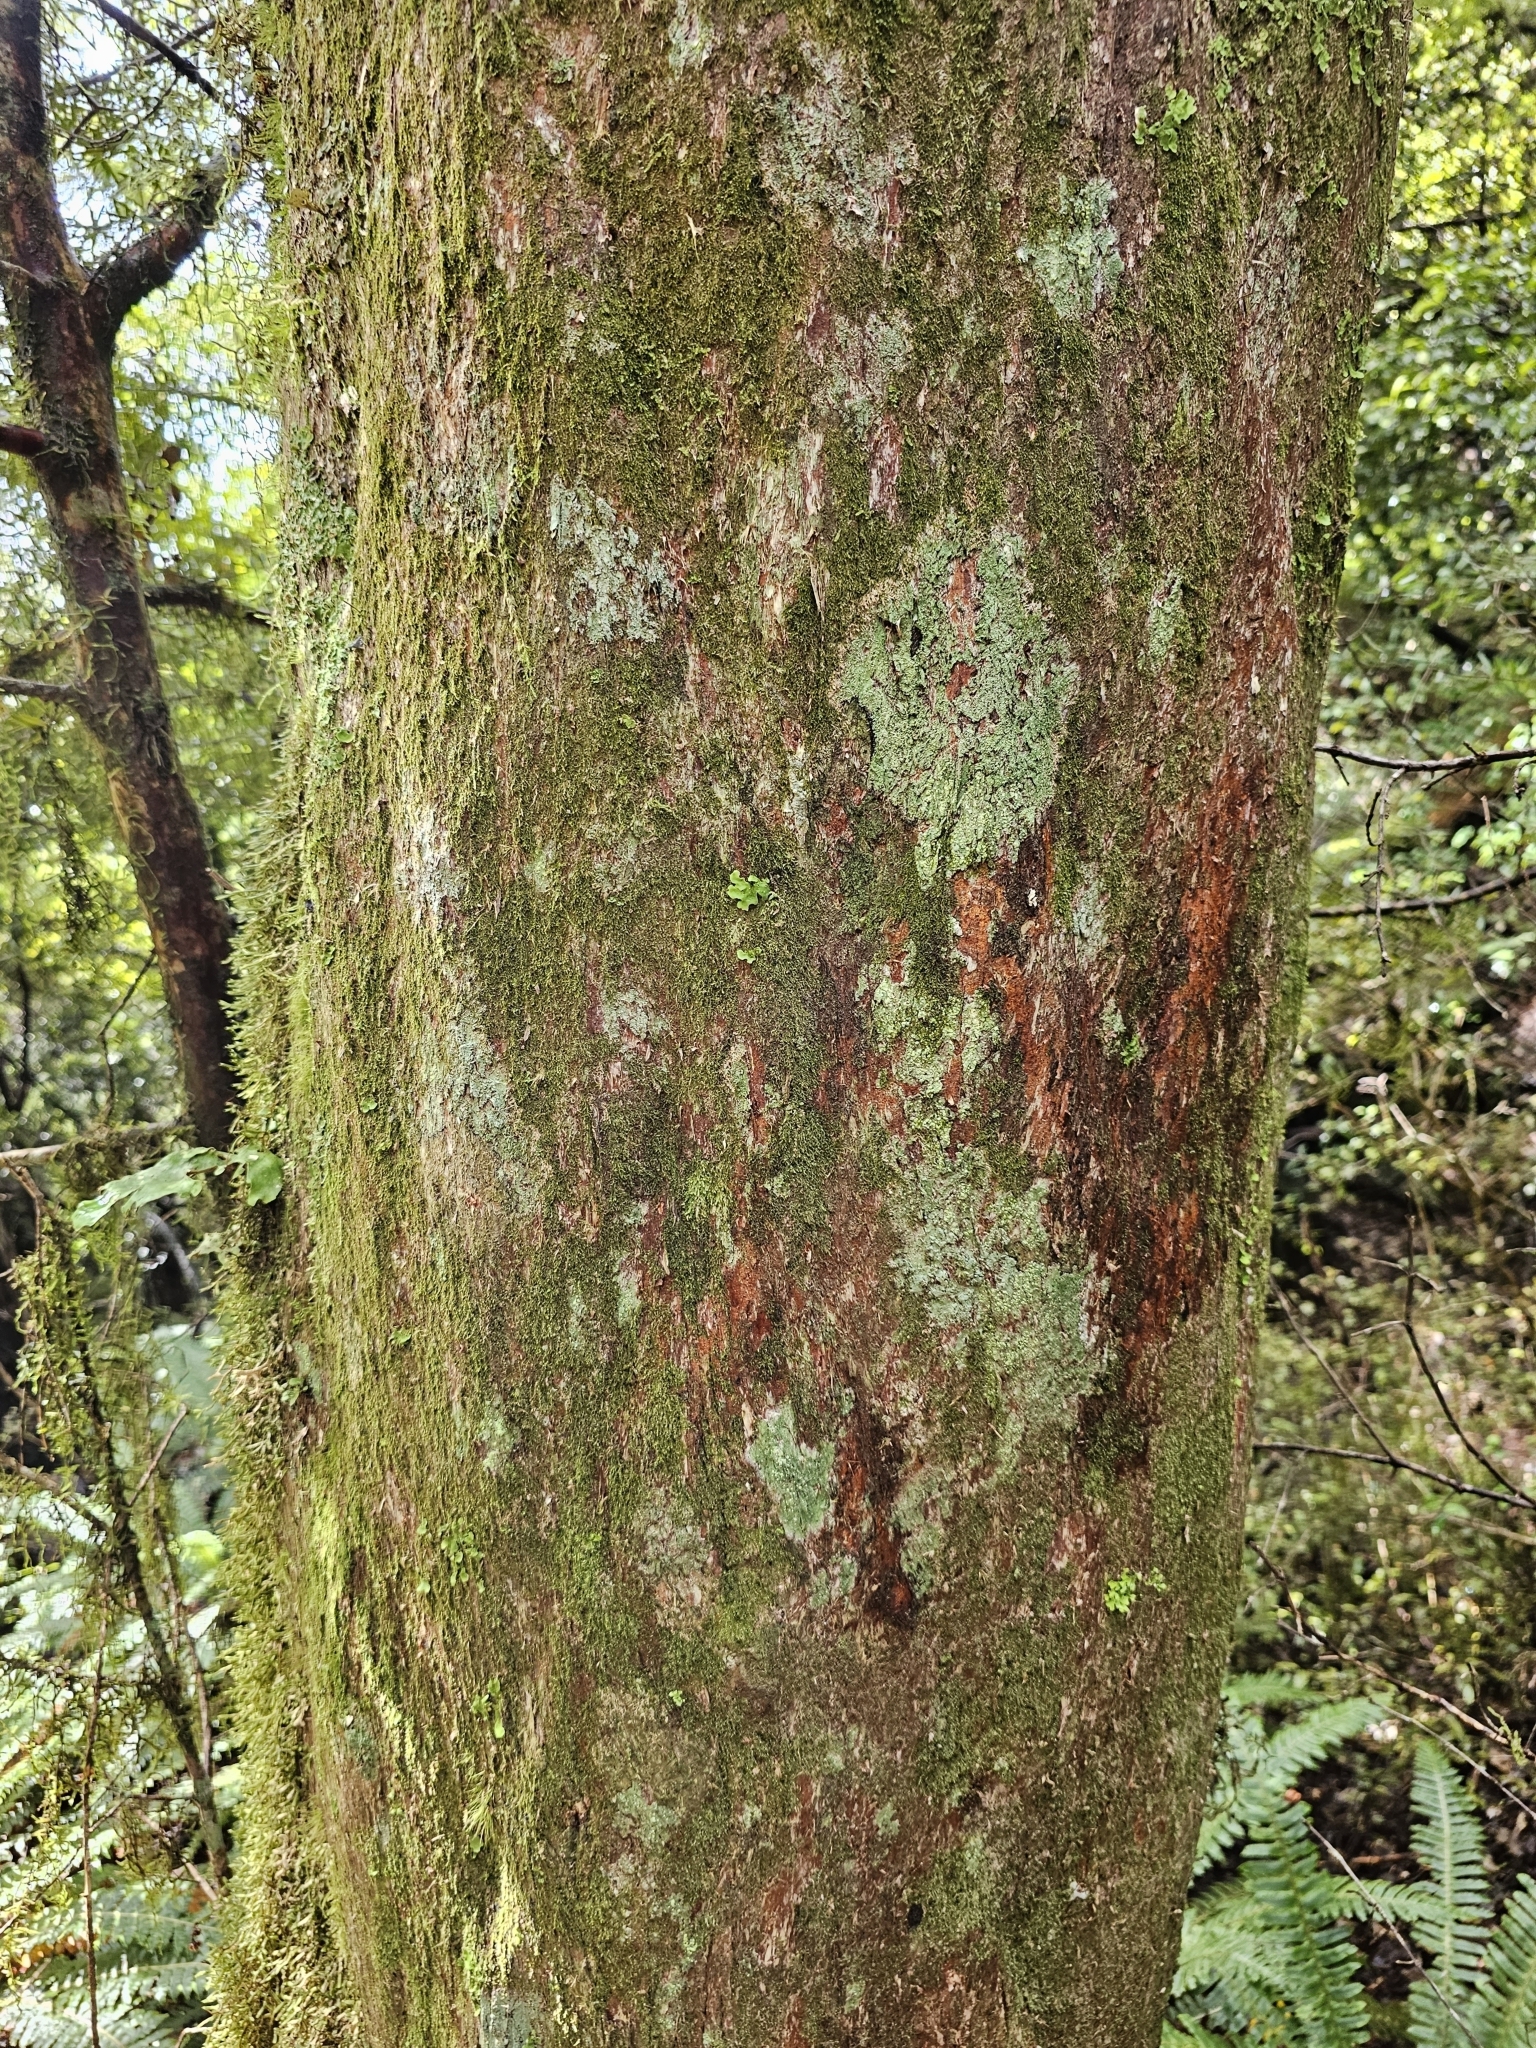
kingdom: Plantae
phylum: Tracheophyta
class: Pinopsida
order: Pinales
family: Podocarpaceae
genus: Podocarpus
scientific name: Podocarpus laetus
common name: Hall's totara
